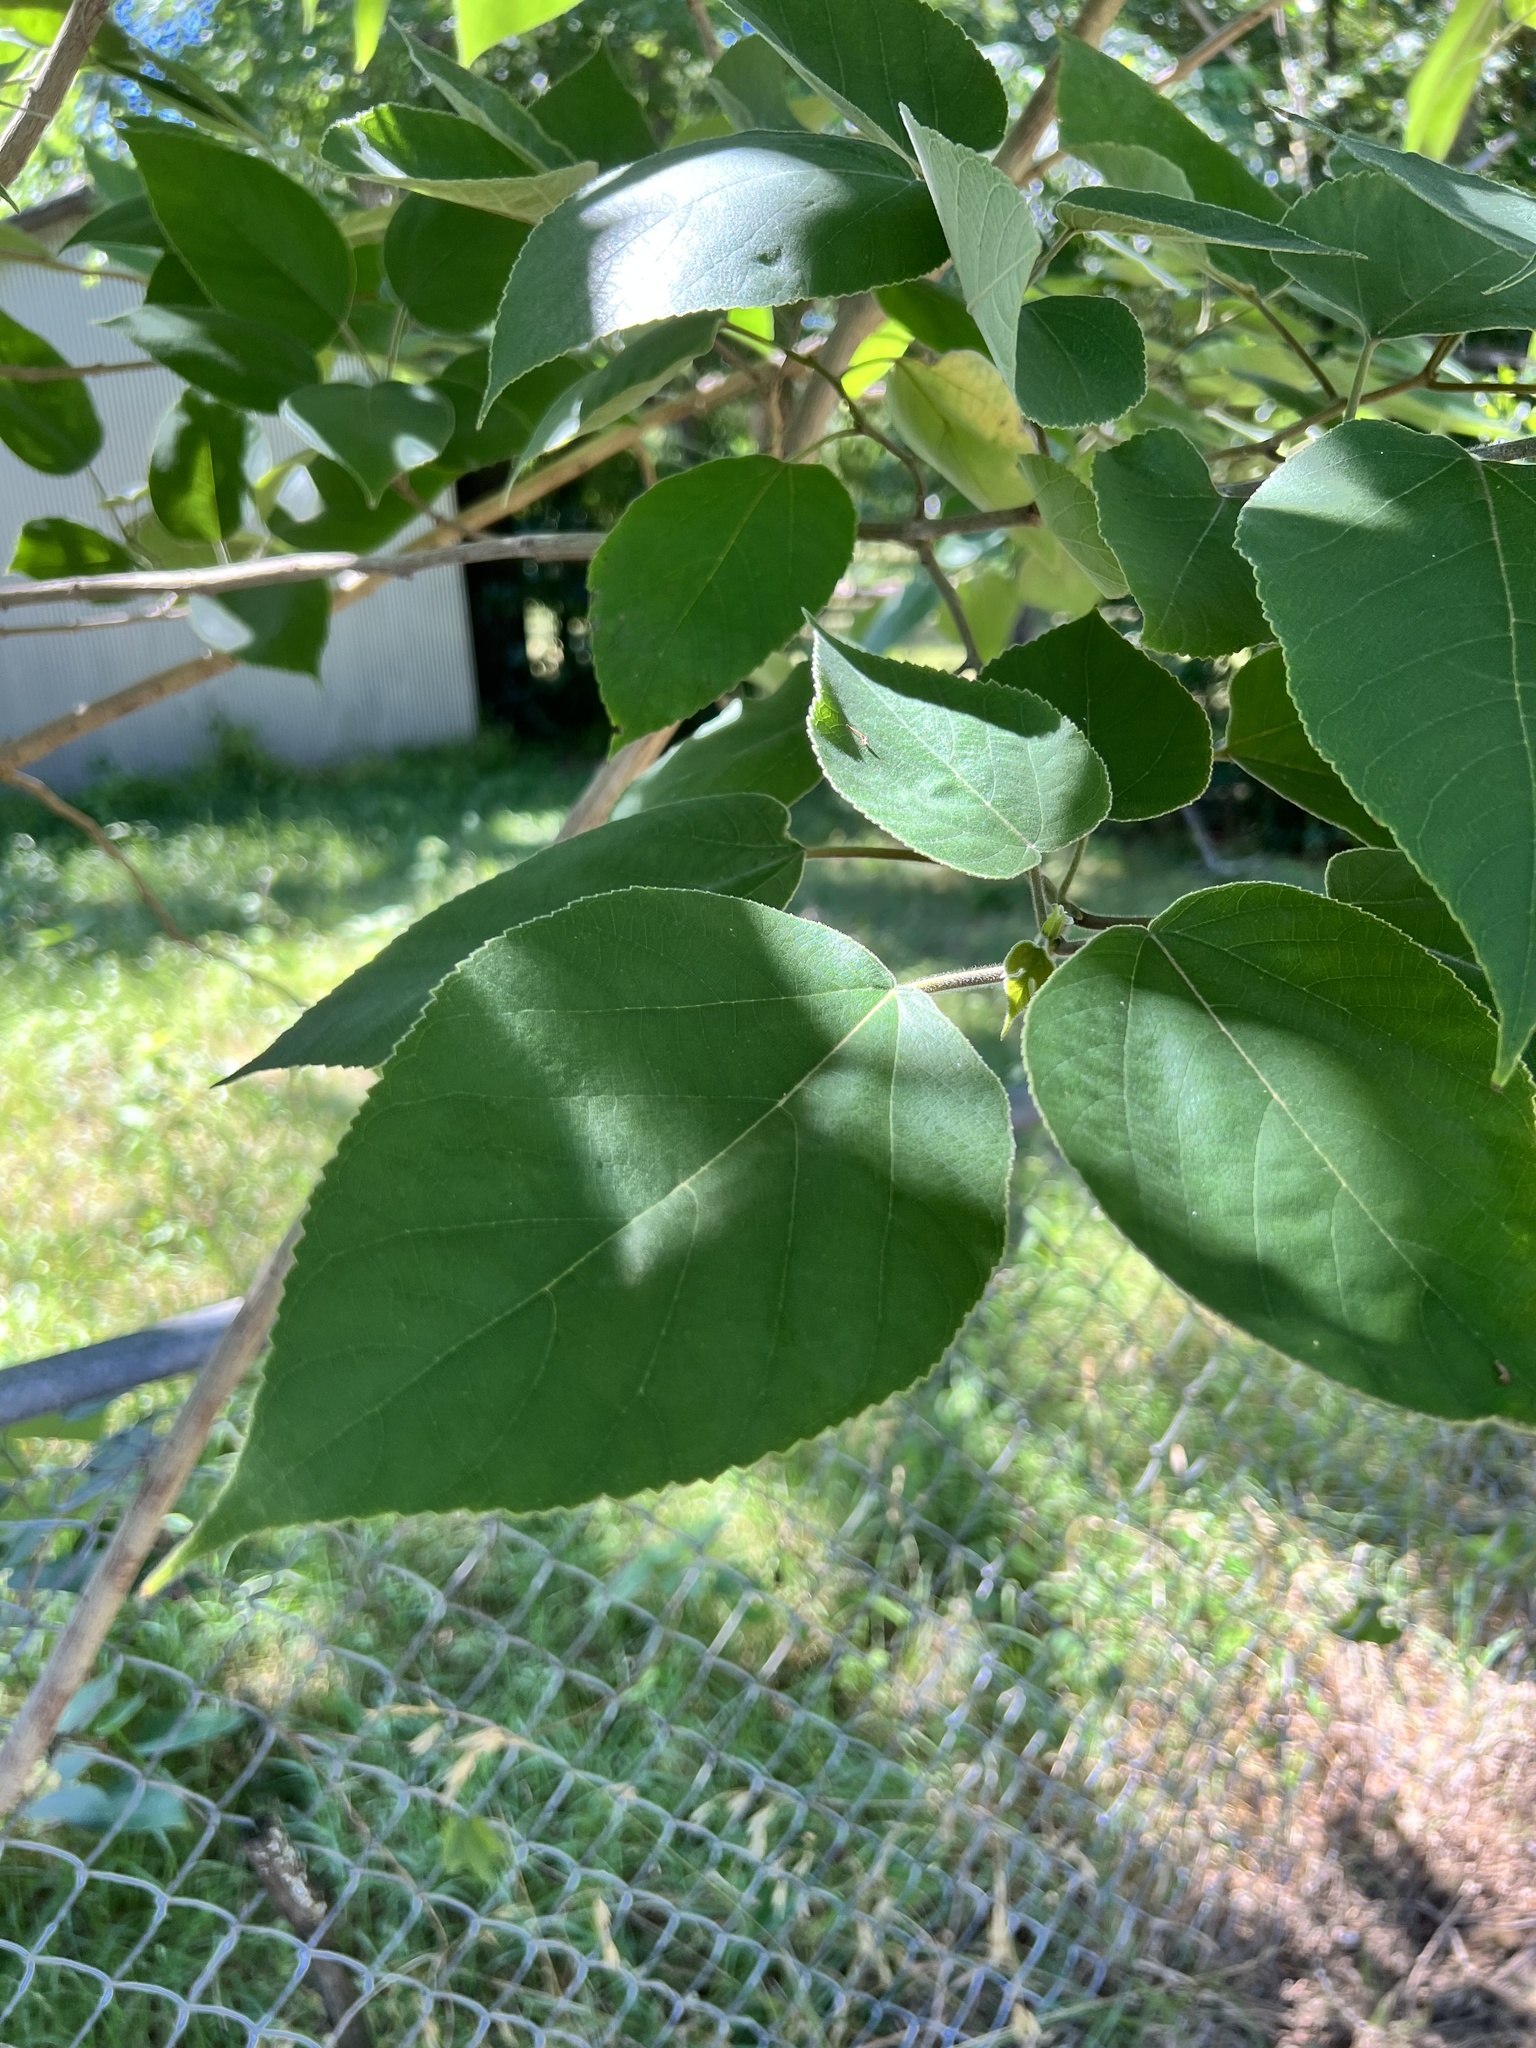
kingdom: Plantae
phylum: Tracheophyta
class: Magnoliopsida
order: Rosales
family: Moraceae
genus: Broussonetia
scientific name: Broussonetia papyrifera
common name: Paper mulberry
